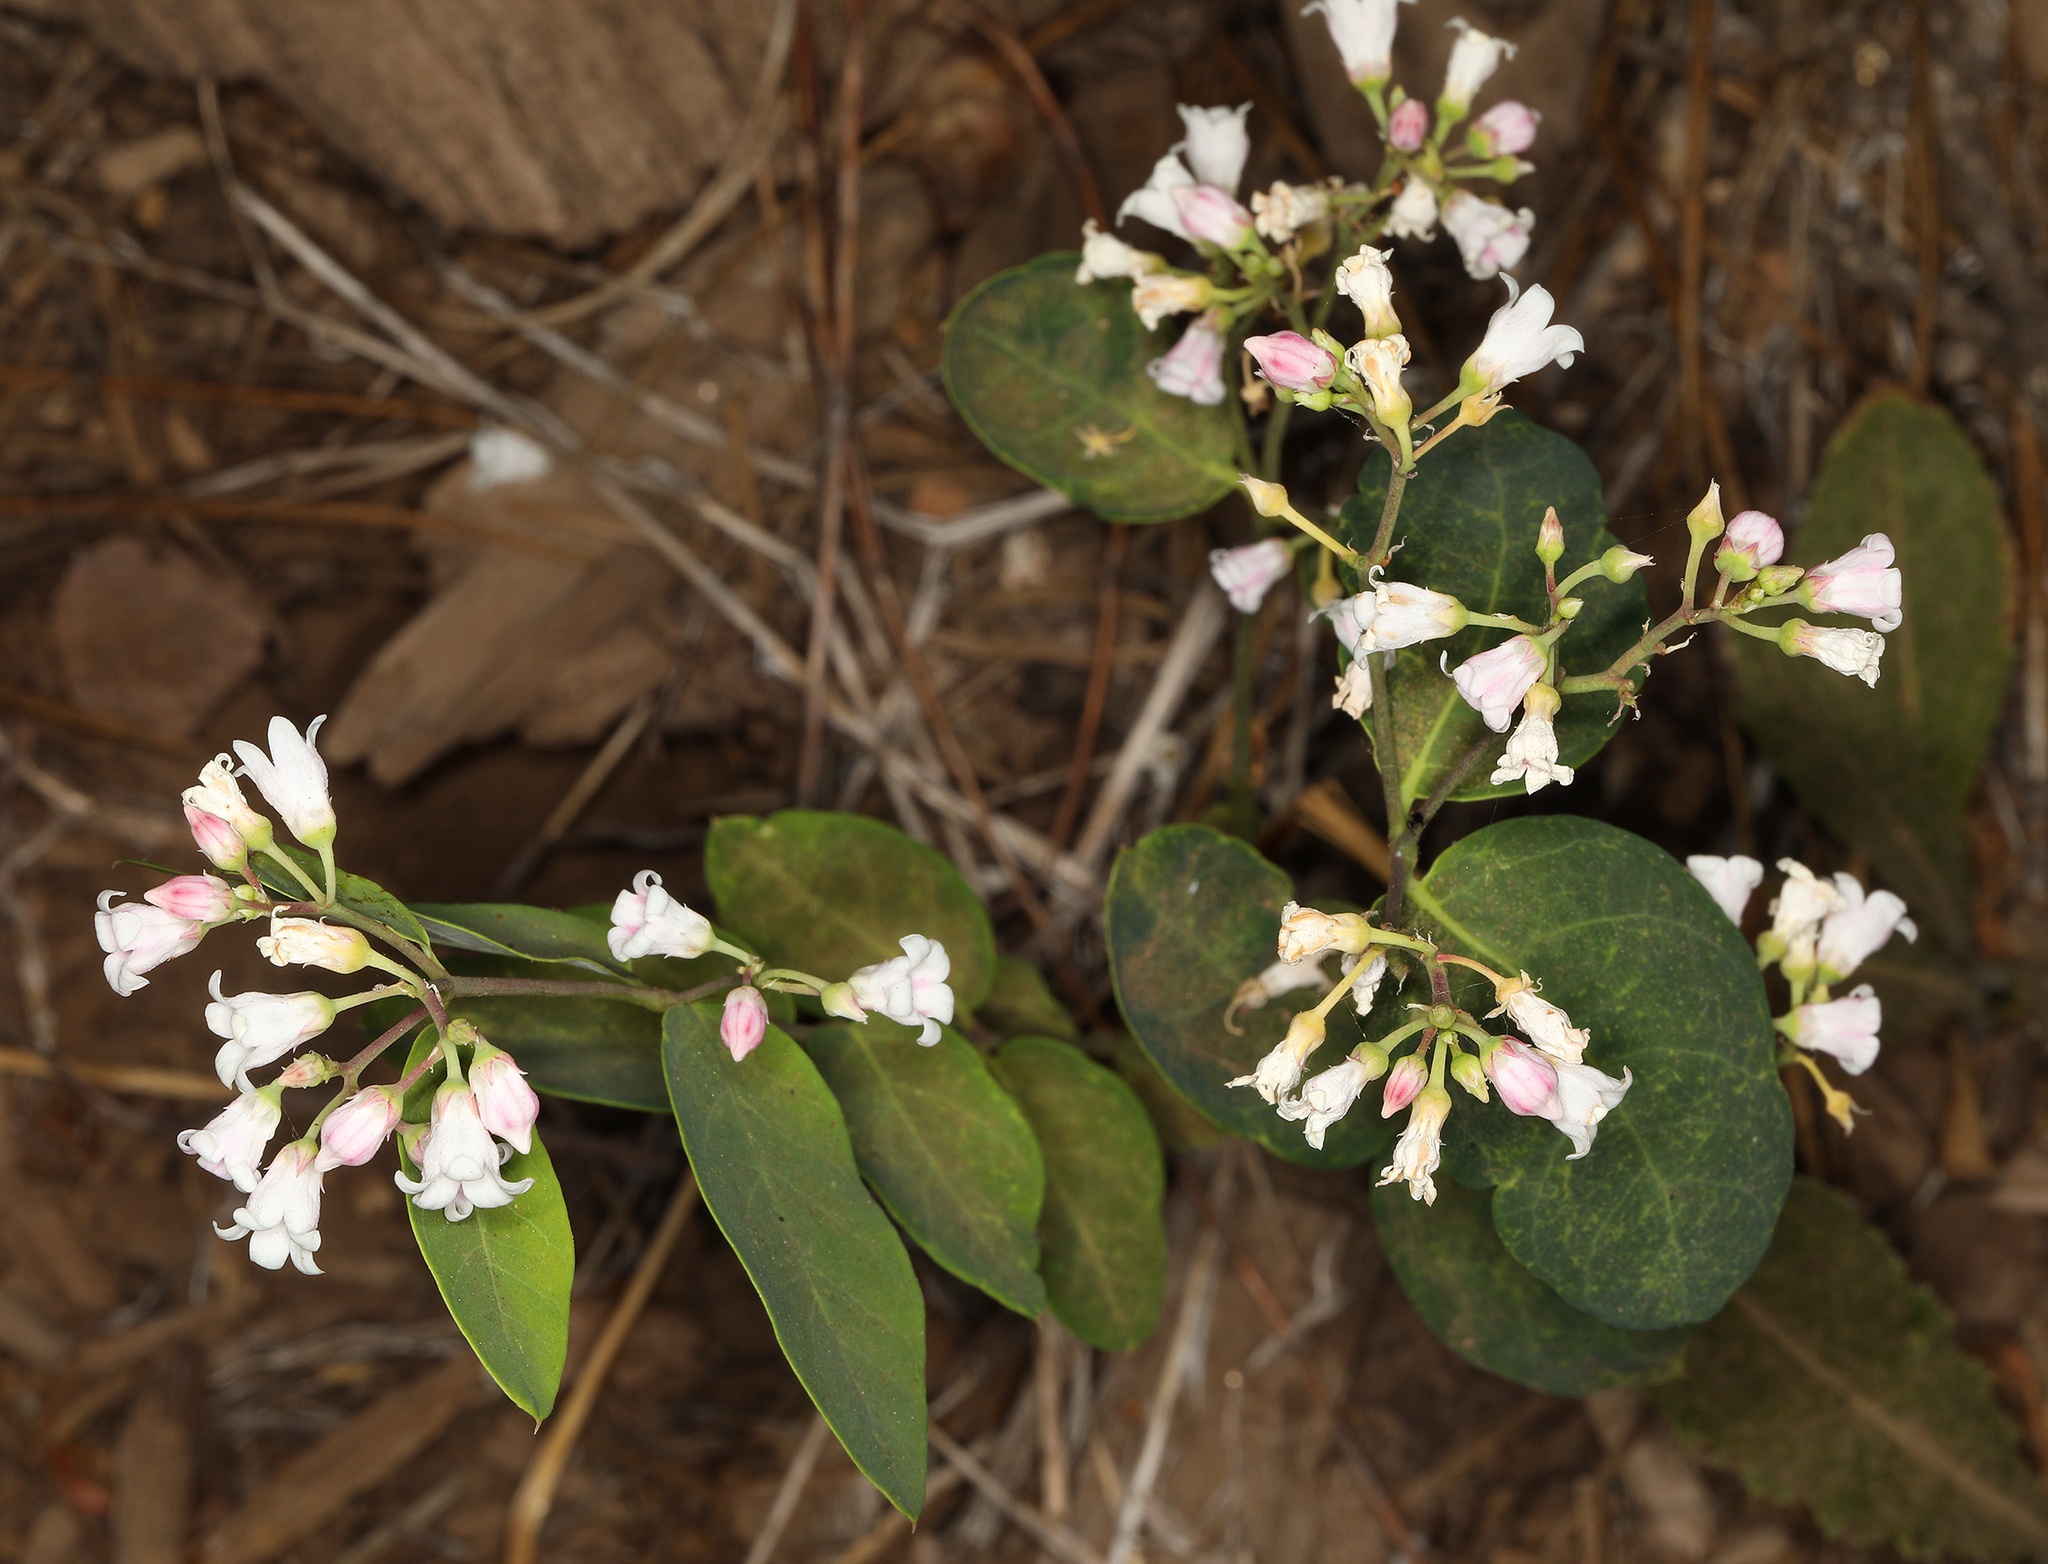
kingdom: Plantae
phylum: Tracheophyta
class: Magnoliopsida
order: Gentianales
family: Apocynaceae
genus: Apocynum
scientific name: Apocynum androsaemifolium
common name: Spreading dogbane
